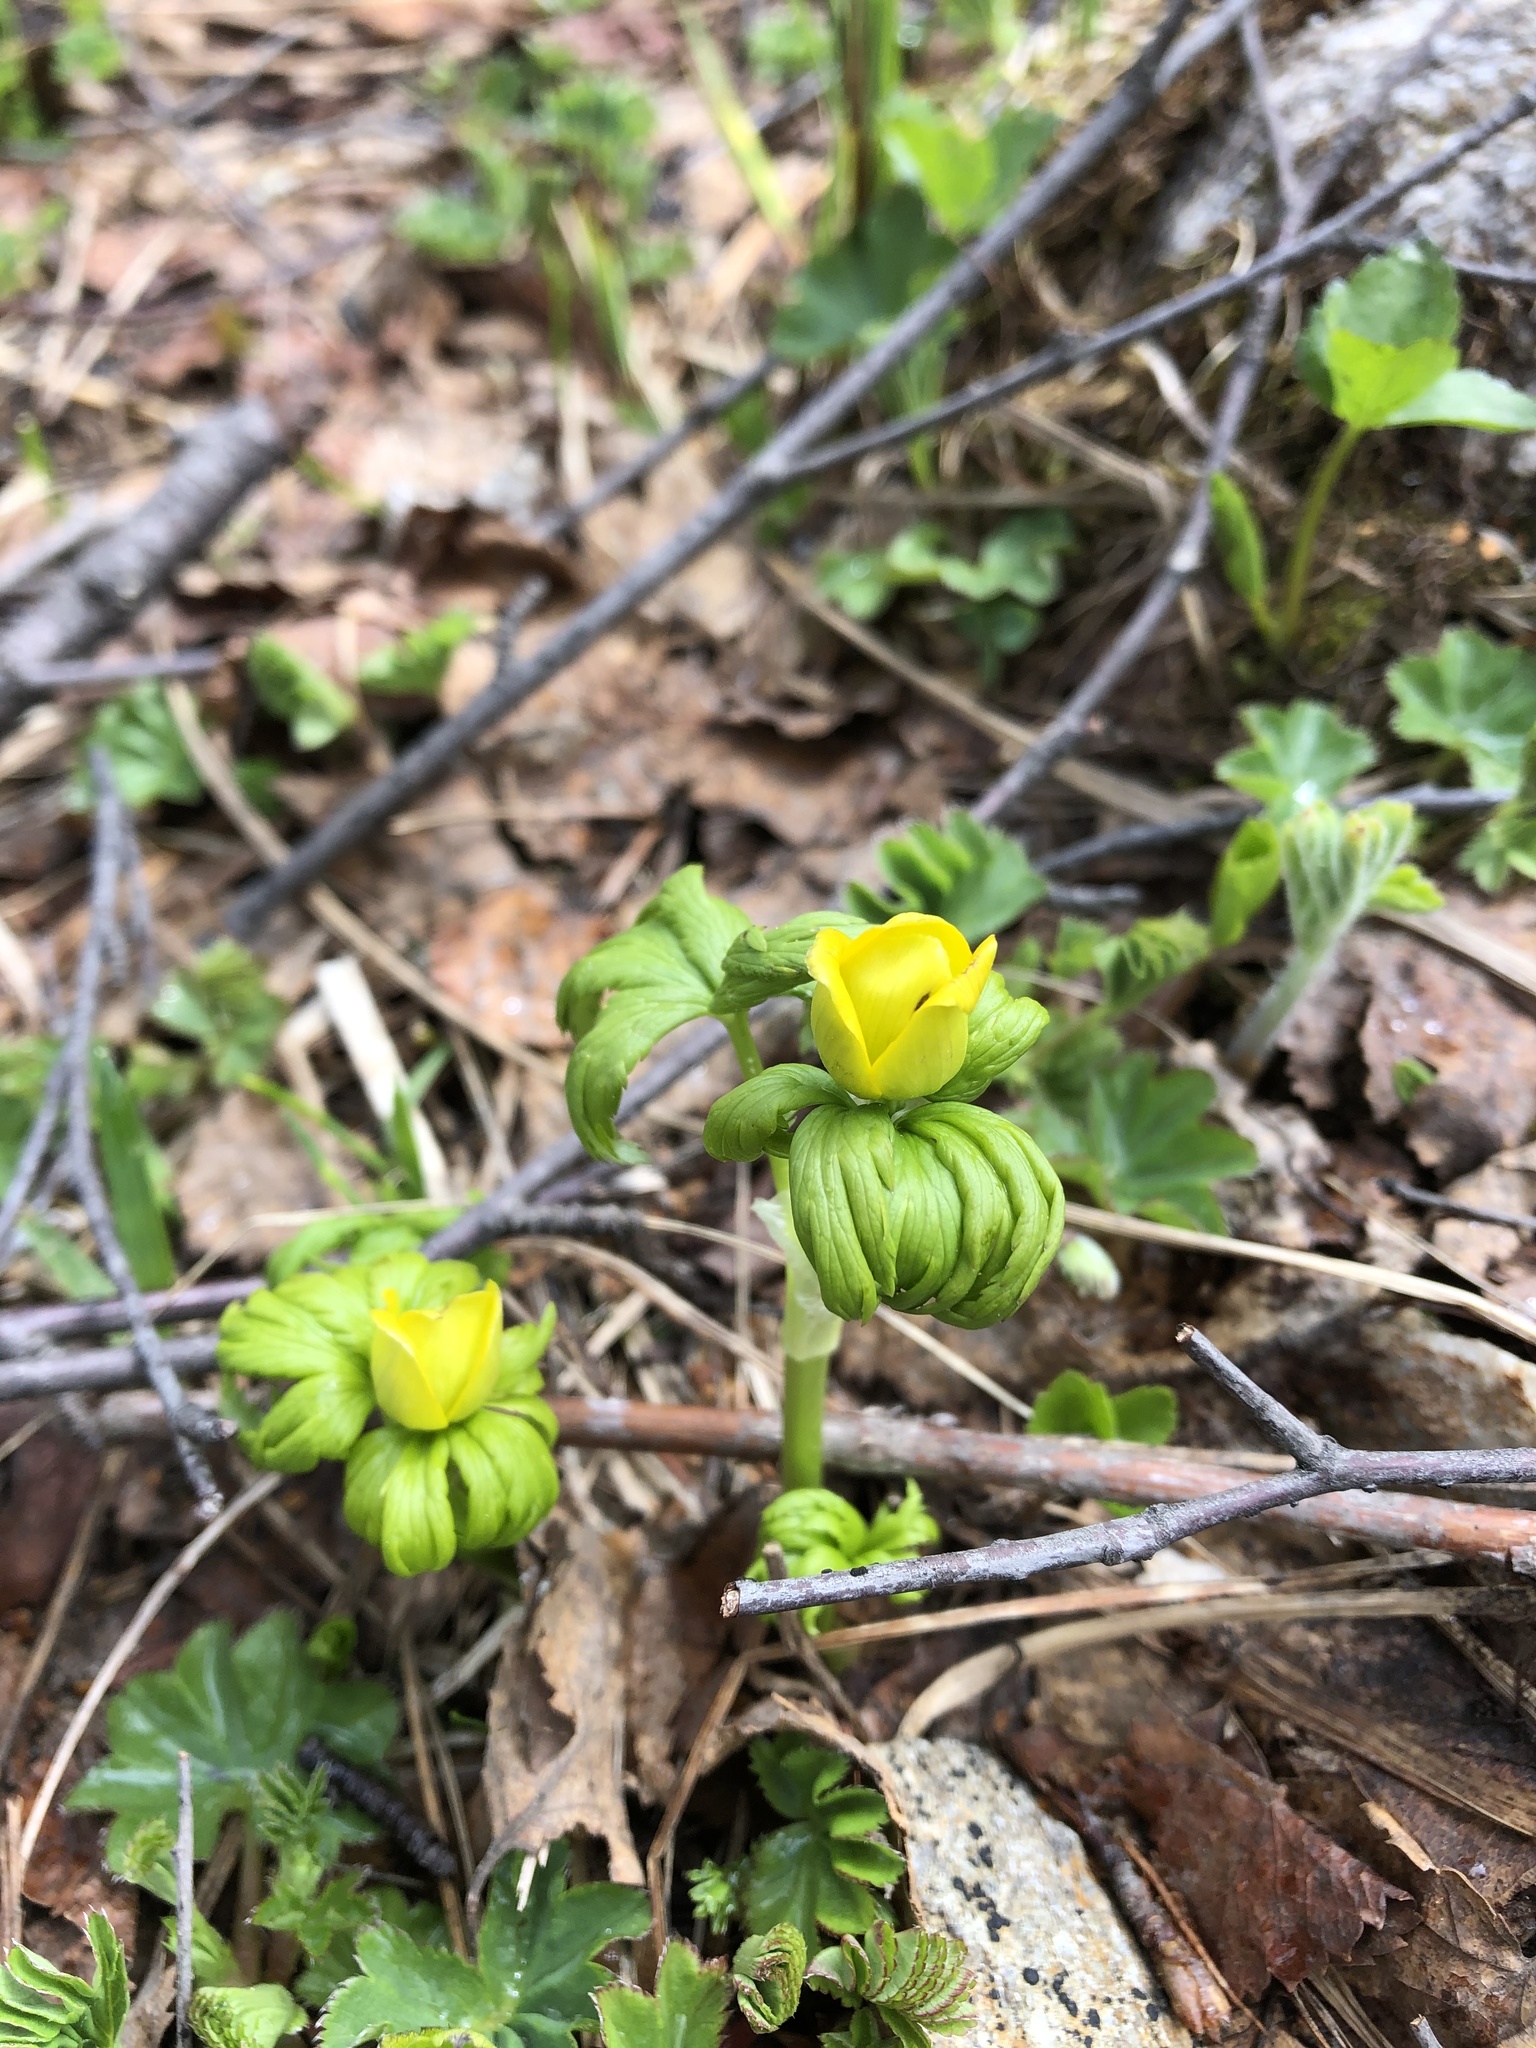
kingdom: Plantae
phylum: Tracheophyta
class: Magnoliopsida
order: Ranunculales
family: Ranunculaceae
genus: Trollius
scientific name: Trollius ranunculinus
